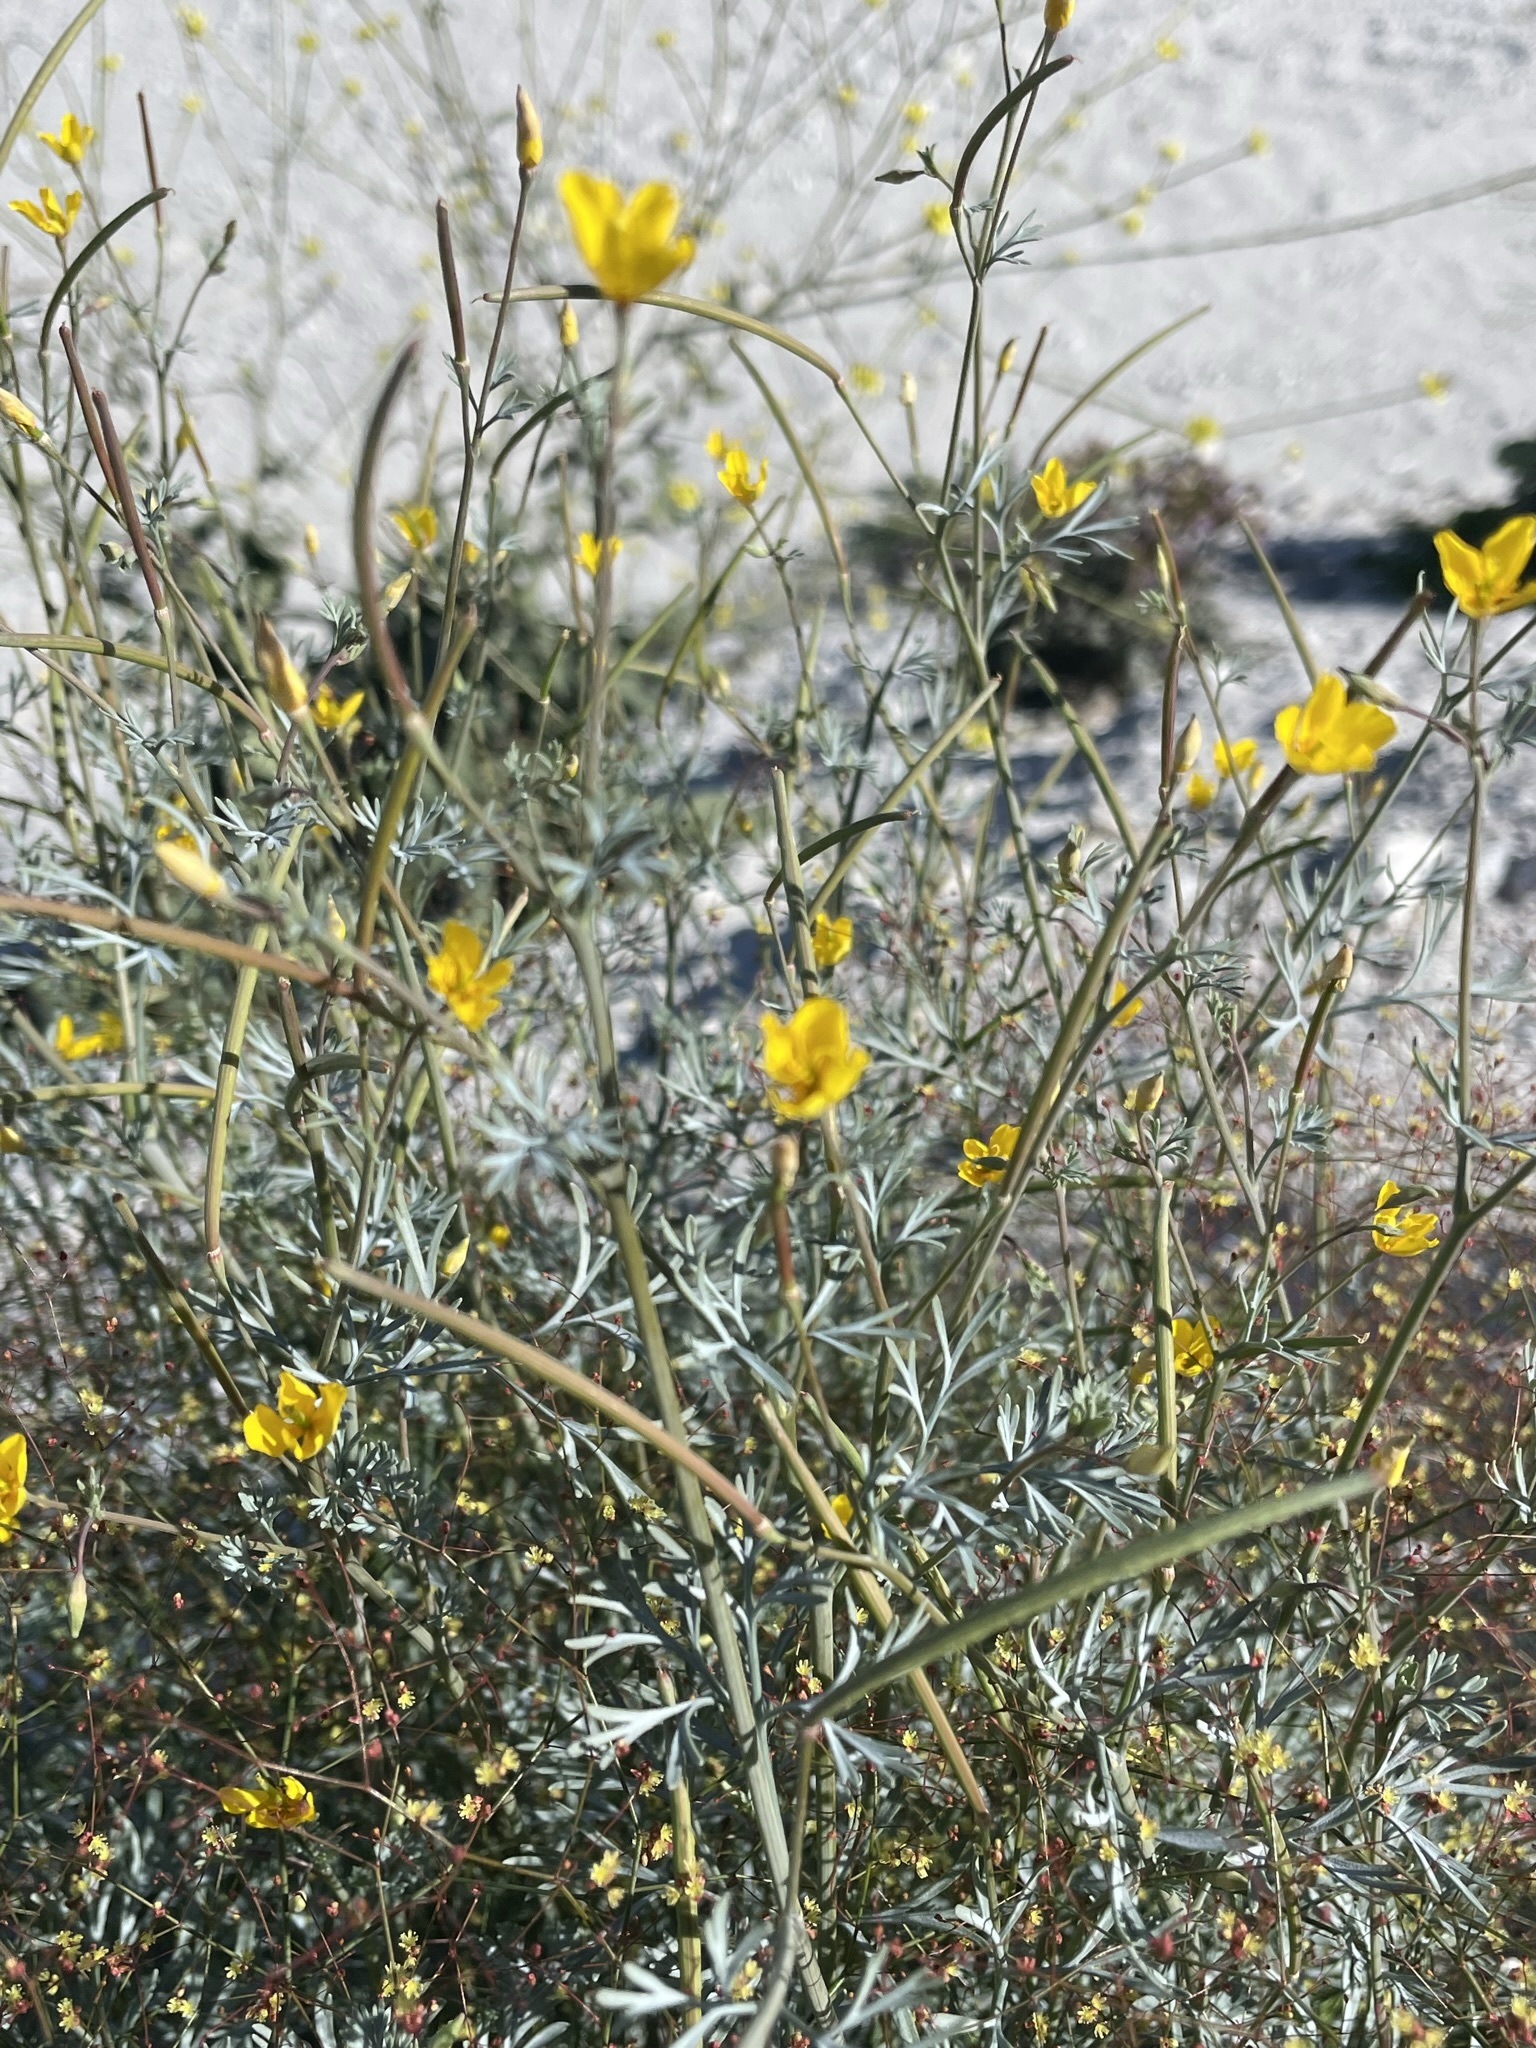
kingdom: Plantae
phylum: Tracheophyta
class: Magnoliopsida
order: Ranunculales
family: Papaveraceae
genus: Eschscholzia
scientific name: Eschscholzia minutiflora
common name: Small-flower california-poppy
